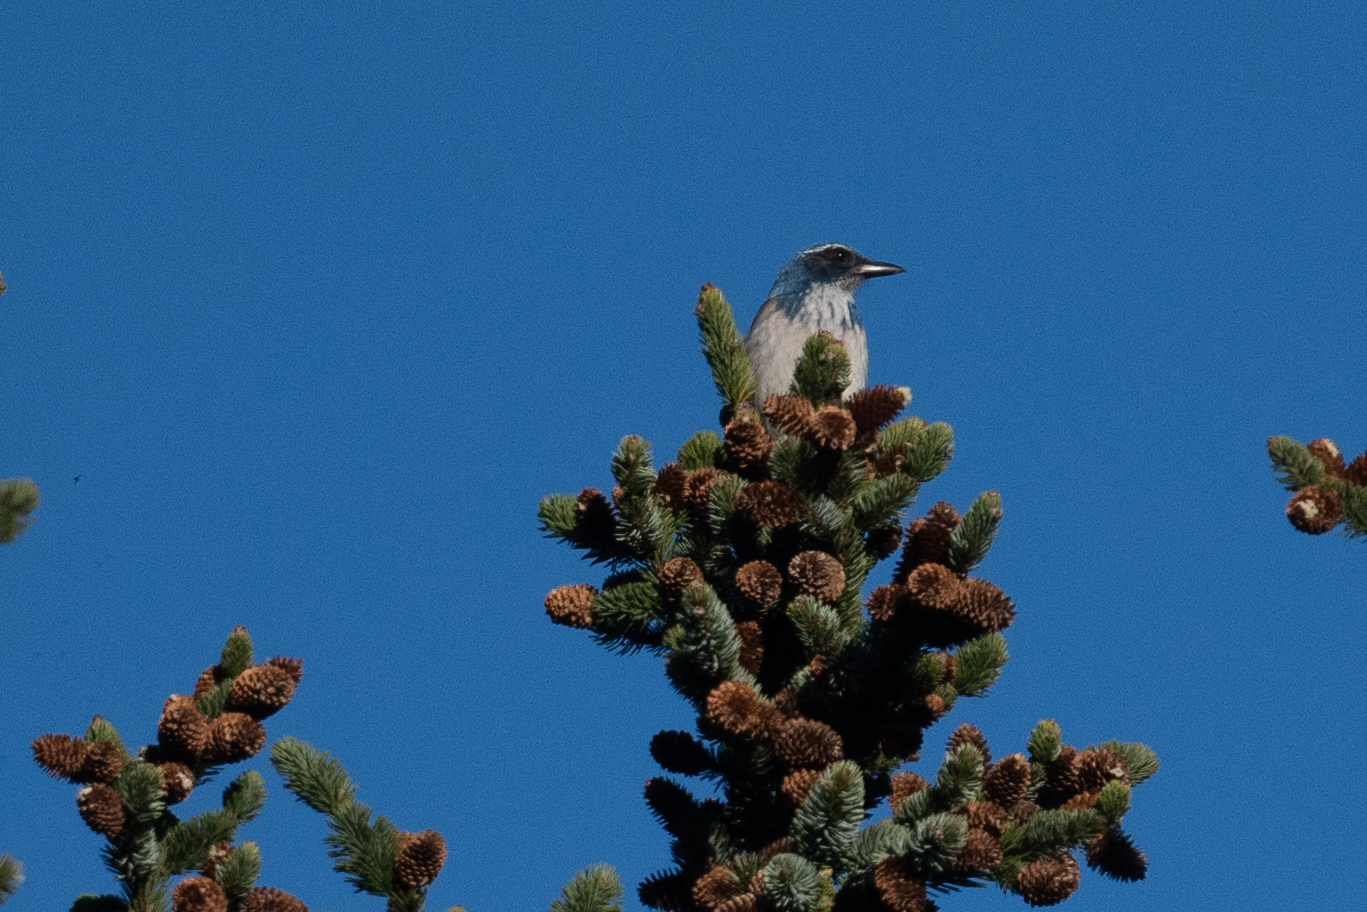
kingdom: Animalia
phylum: Chordata
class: Aves
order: Passeriformes
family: Corvidae
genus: Aphelocoma
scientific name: Aphelocoma californica
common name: California scrub-jay
